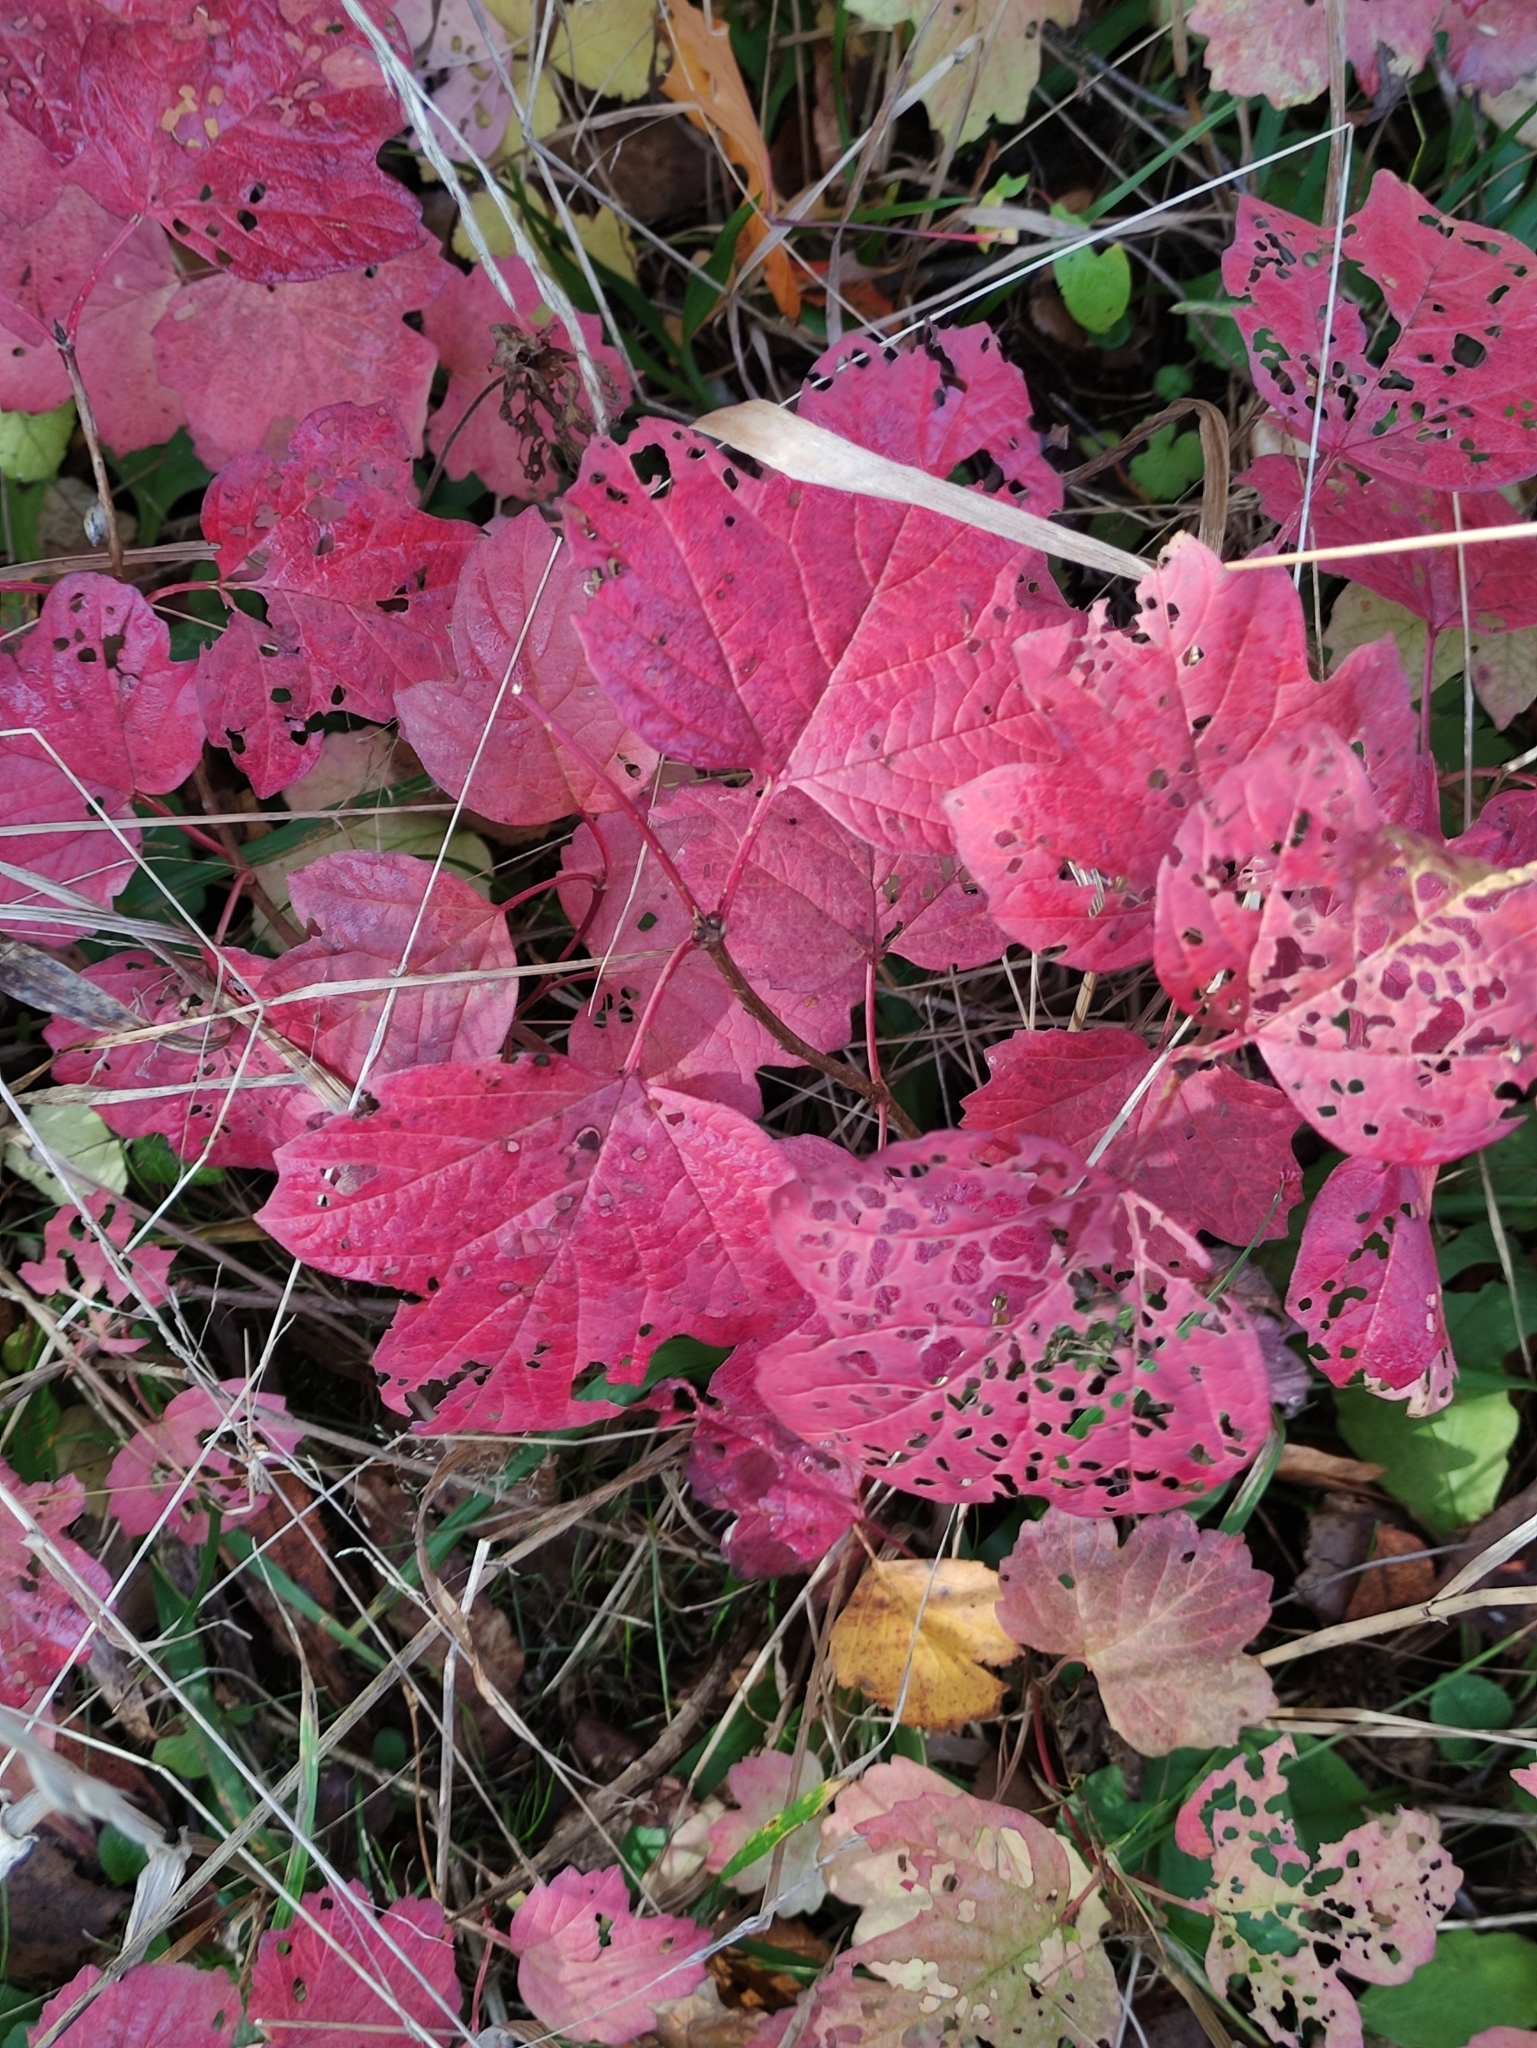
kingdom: Plantae
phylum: Tracheophyta
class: Magnoliopsida
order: Dipsacales
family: Viburnaceae
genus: Viburnum
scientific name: Viburnum opulus
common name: Guelder-rose
